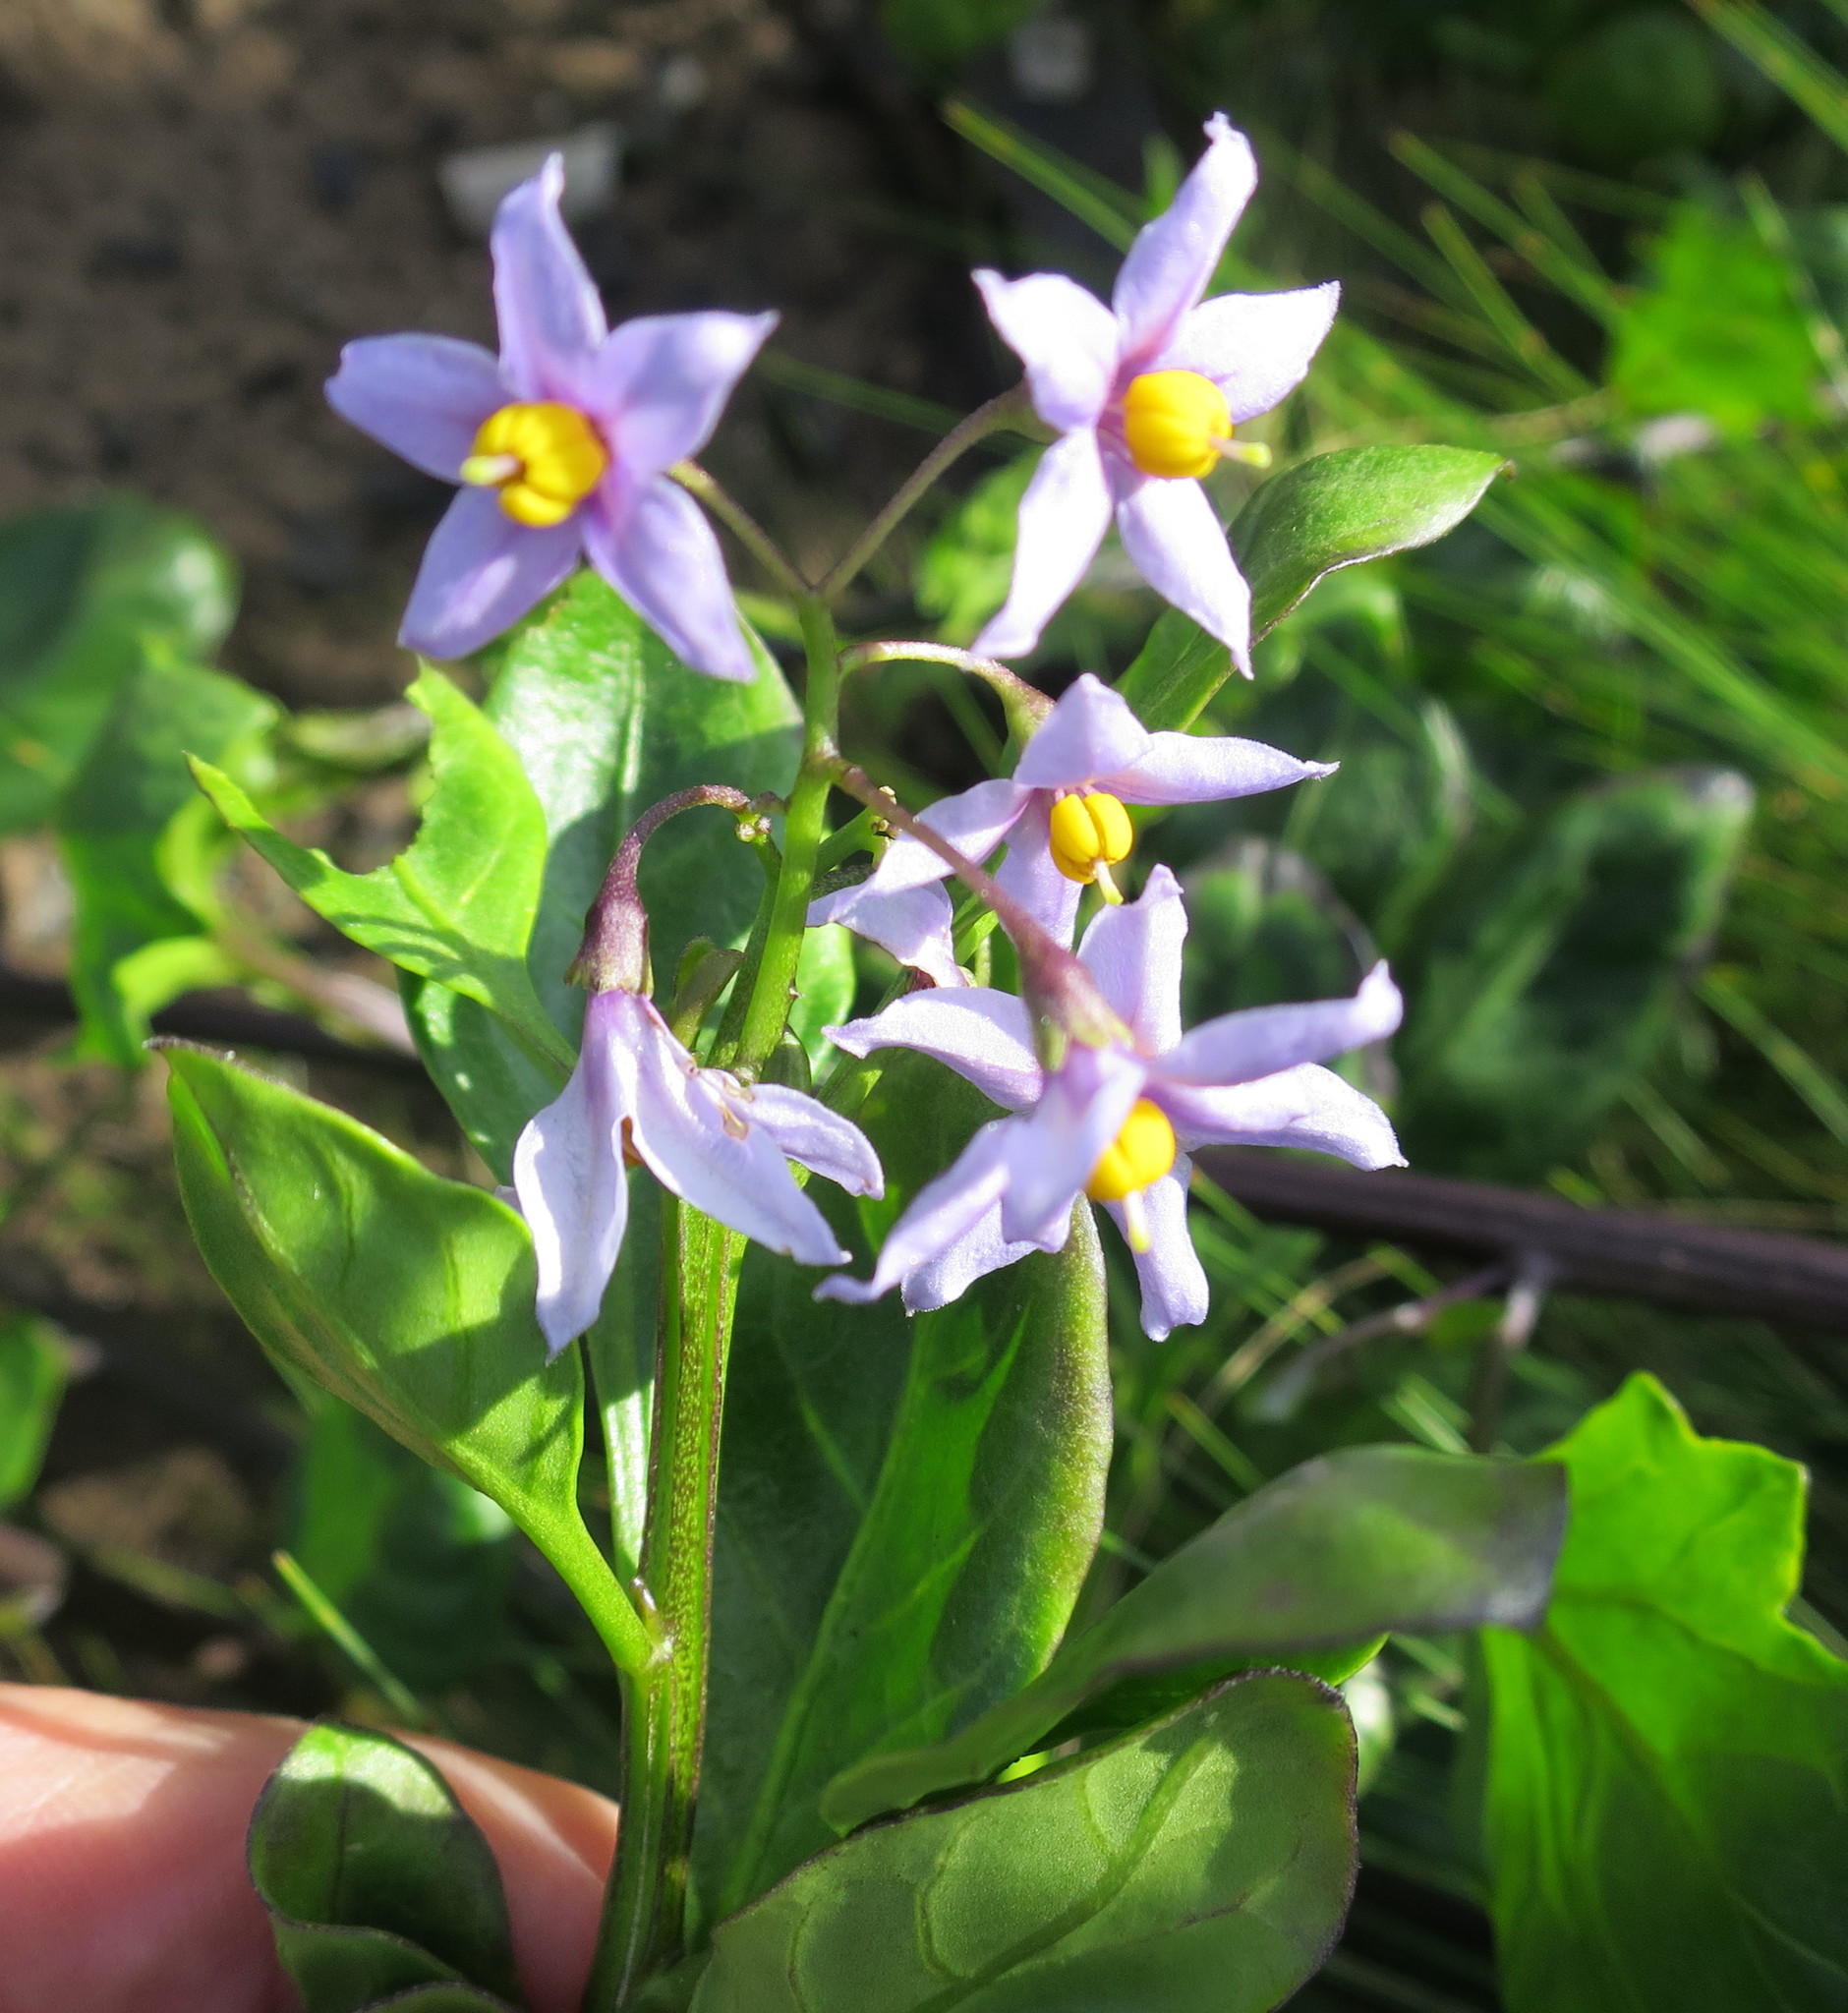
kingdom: Plantae
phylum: Tracheophyta
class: Magnoliopsida
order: Solanales
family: Solanaceae
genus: Solanum
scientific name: Solanum africanum
